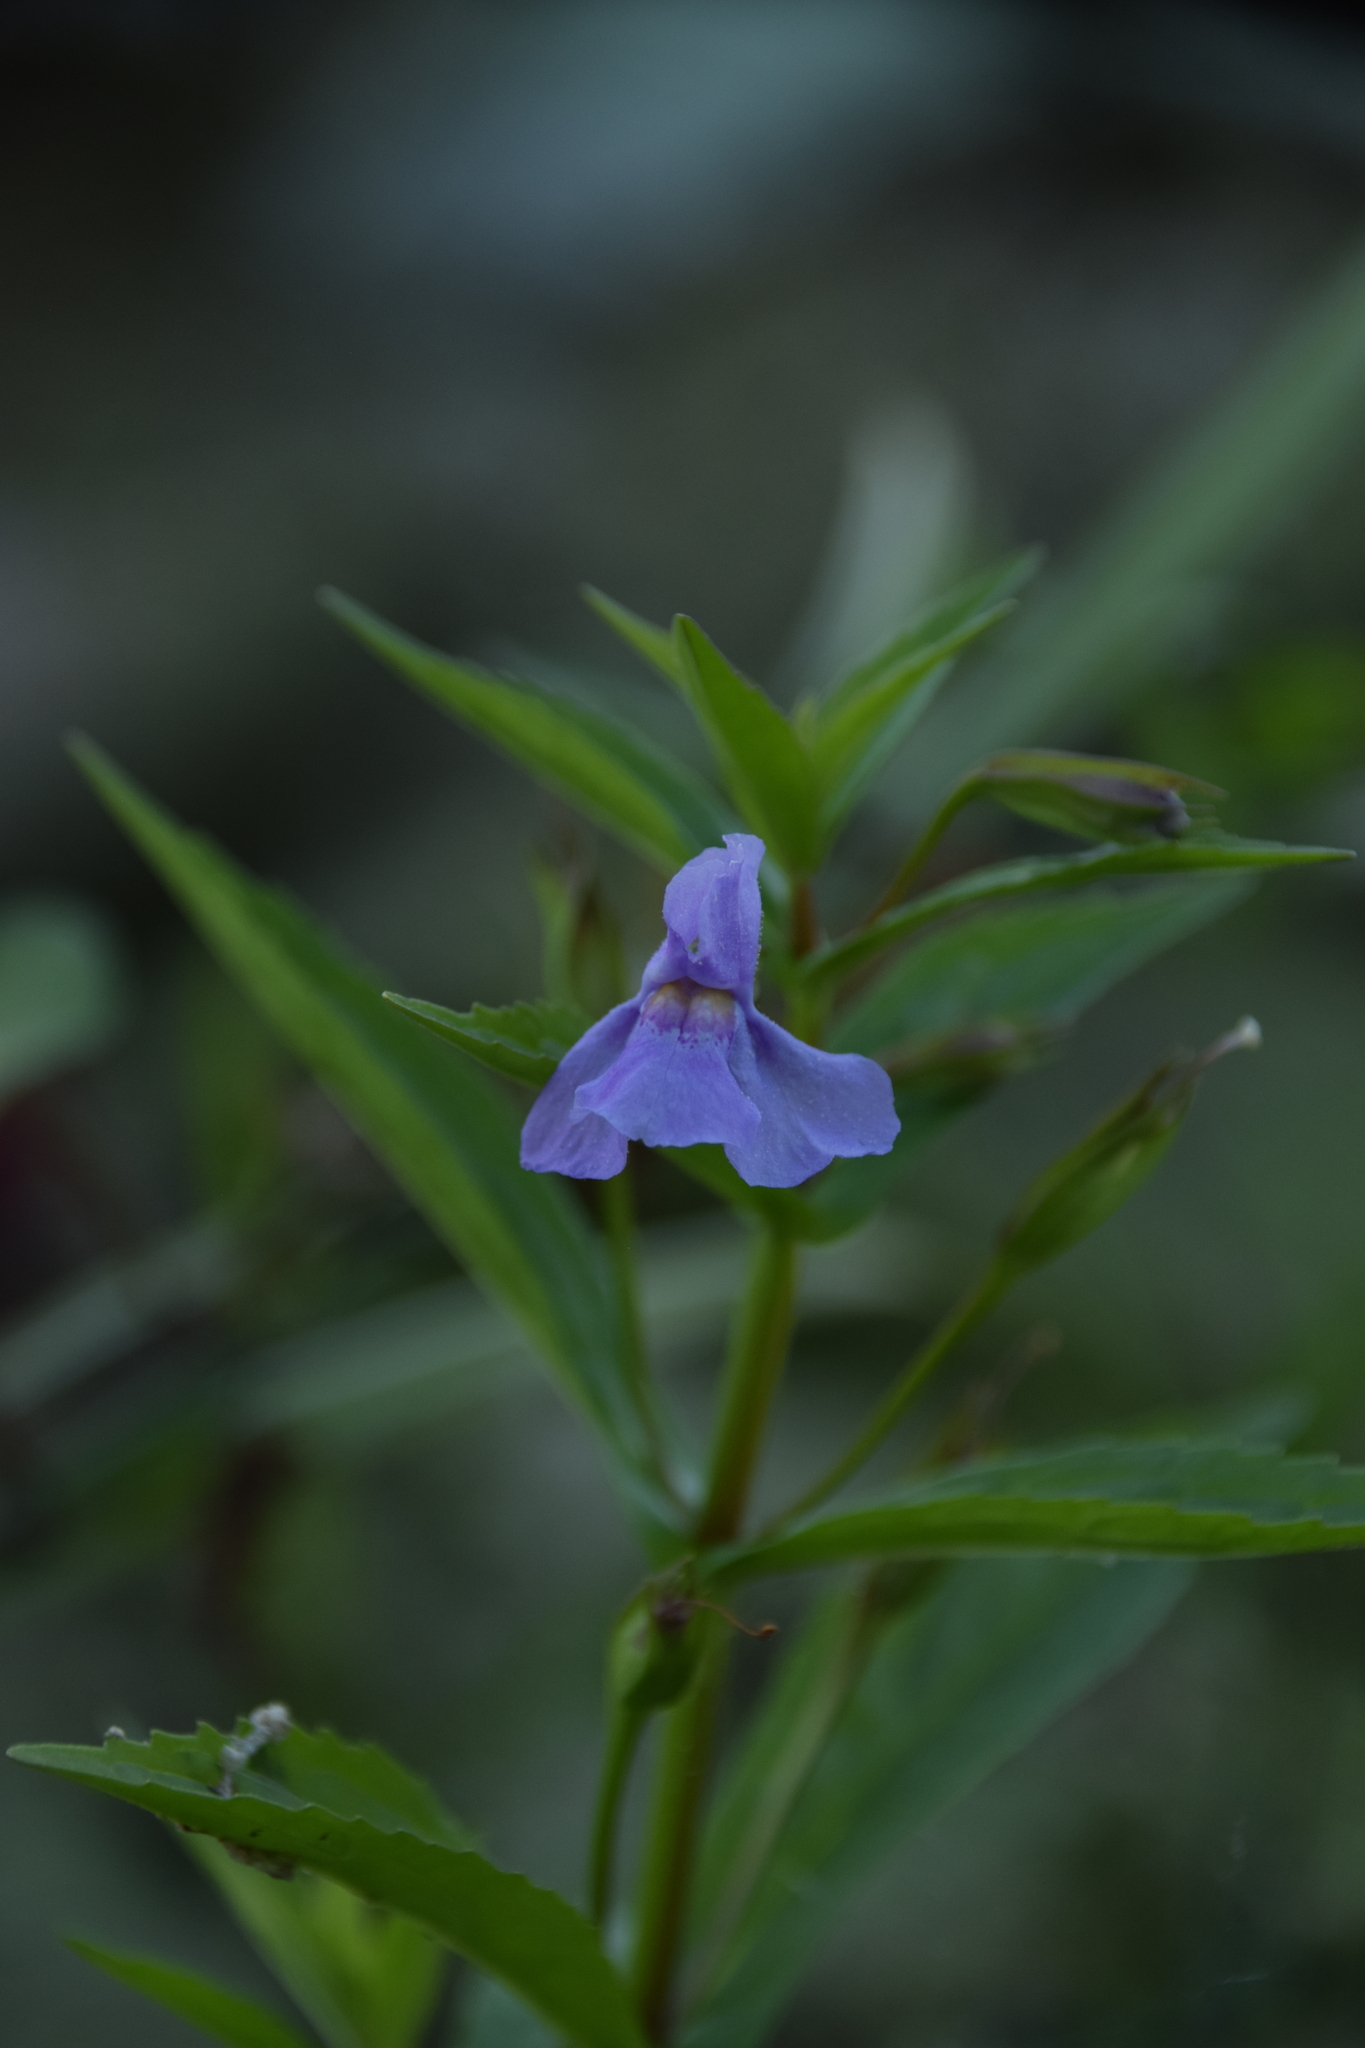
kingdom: Plantae
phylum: Tracheophyta
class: Magnoliopsida
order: Lamiales
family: Phrymaceae
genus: Mimulus
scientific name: Mimulus ringens
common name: Allegheny monkeyflower
